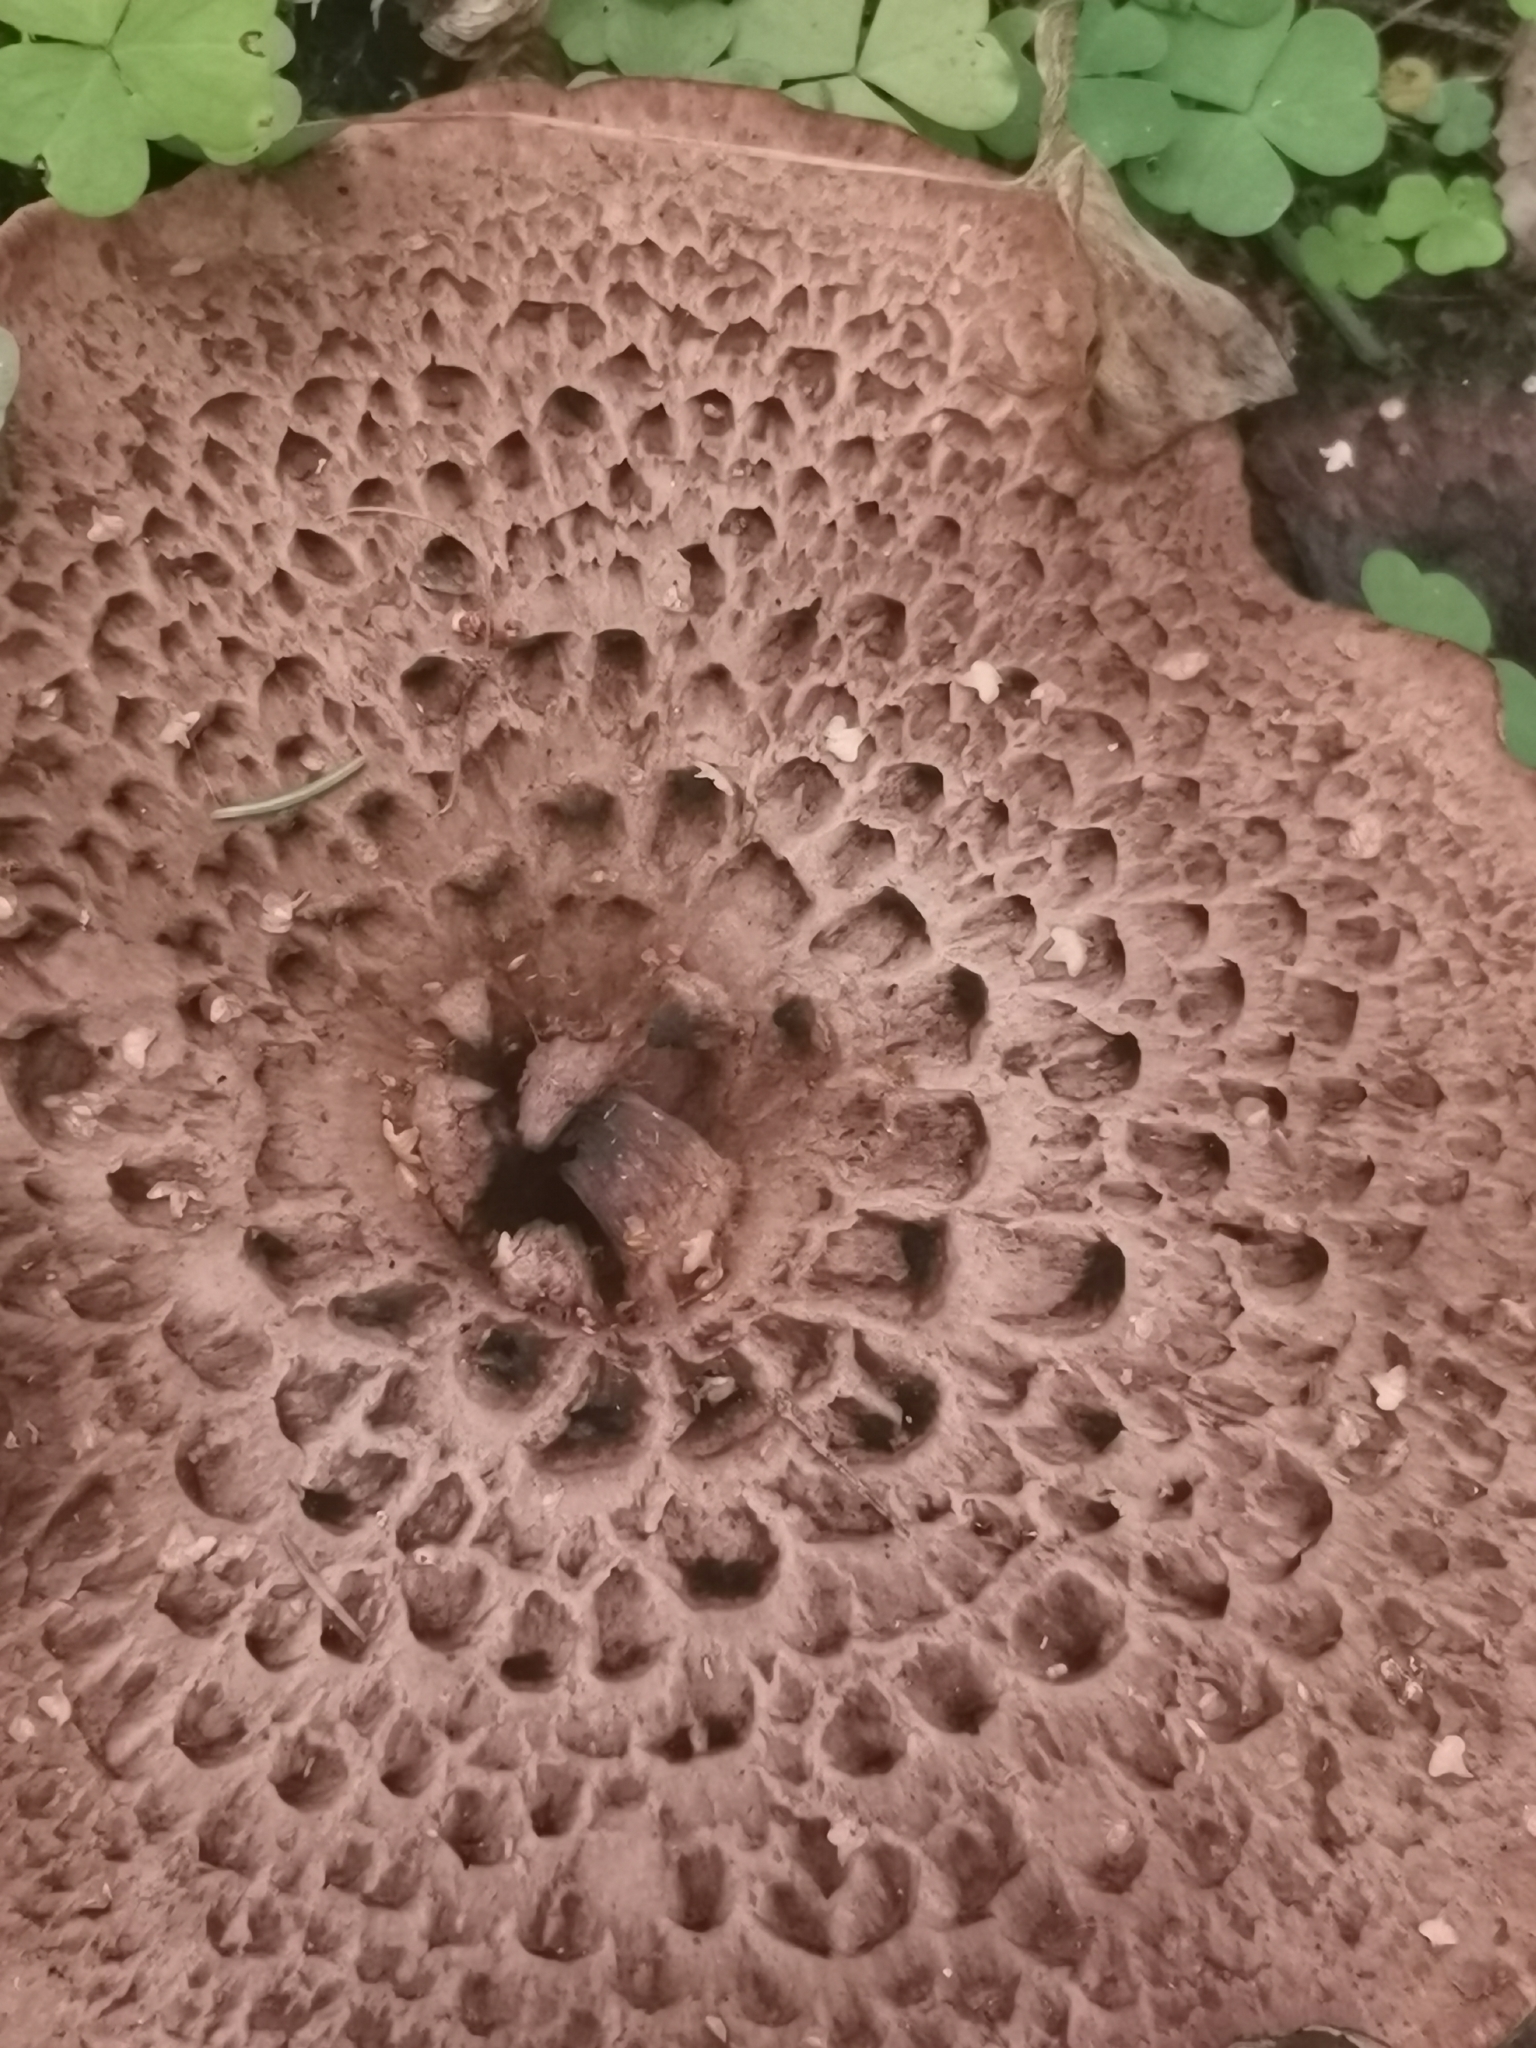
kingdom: Fungi
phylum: Basidiomycota
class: Agaricomycetes
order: Thelephorales
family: Bankeraceae
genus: Sarcodon
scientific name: Sarcodon imbricatus
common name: Shingled hedgehog
